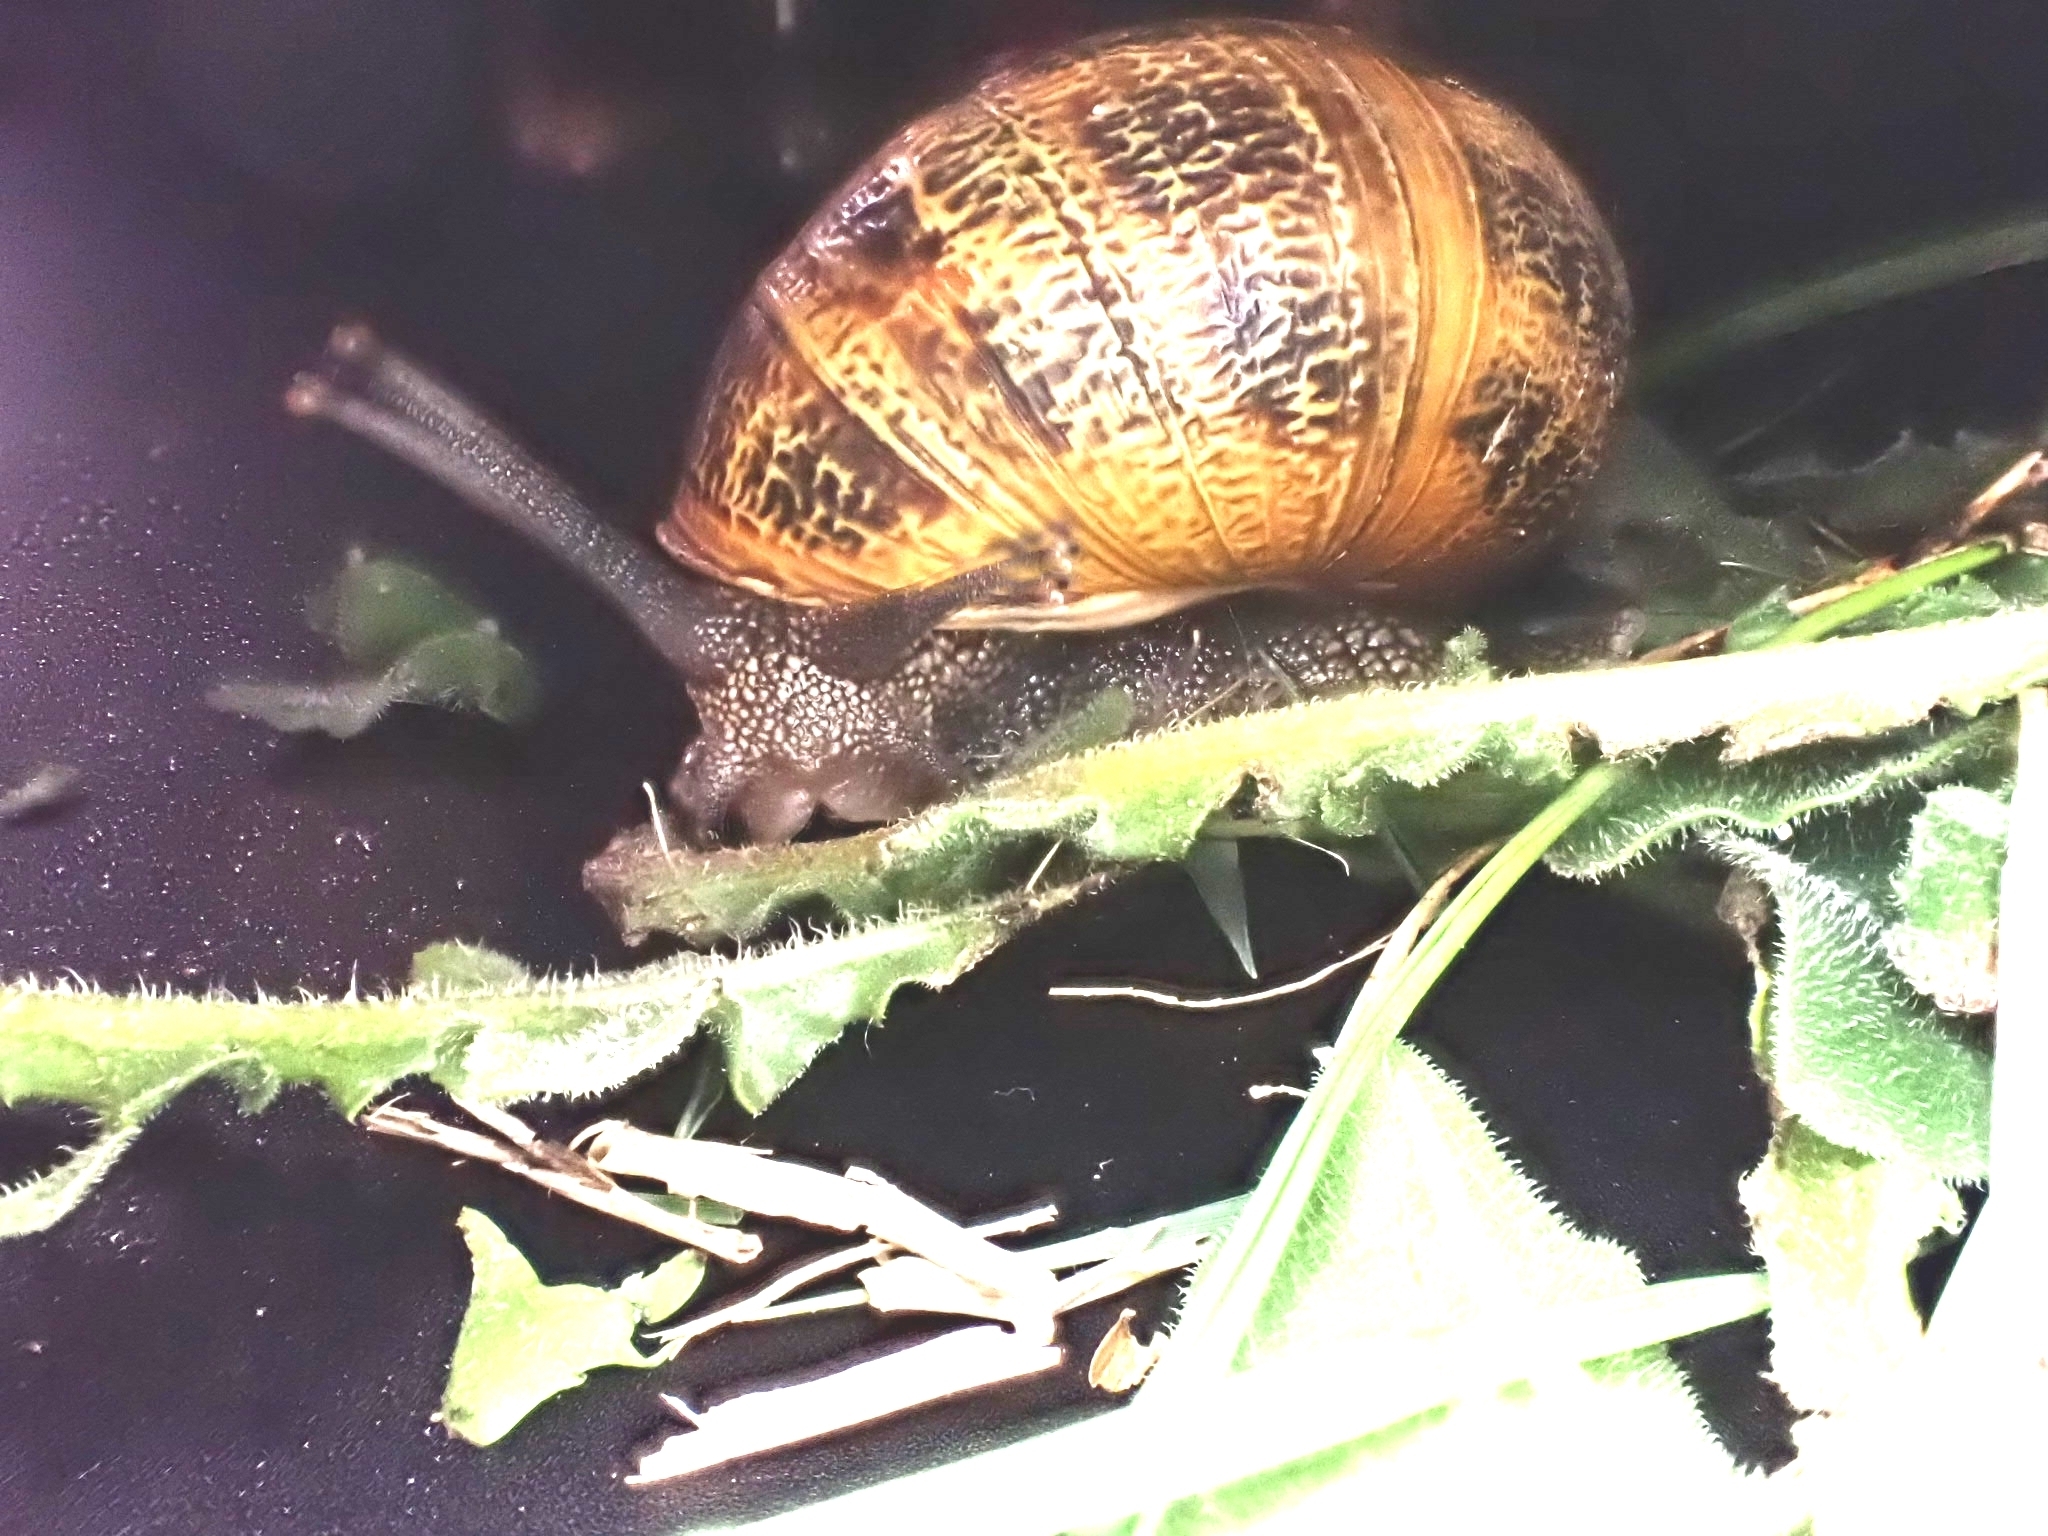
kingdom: Animalia
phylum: Mollusca
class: Gastropoda
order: Stylommatophora
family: Helicidae
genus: Cornu
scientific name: Cornu aspersum
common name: Brown garden snail
